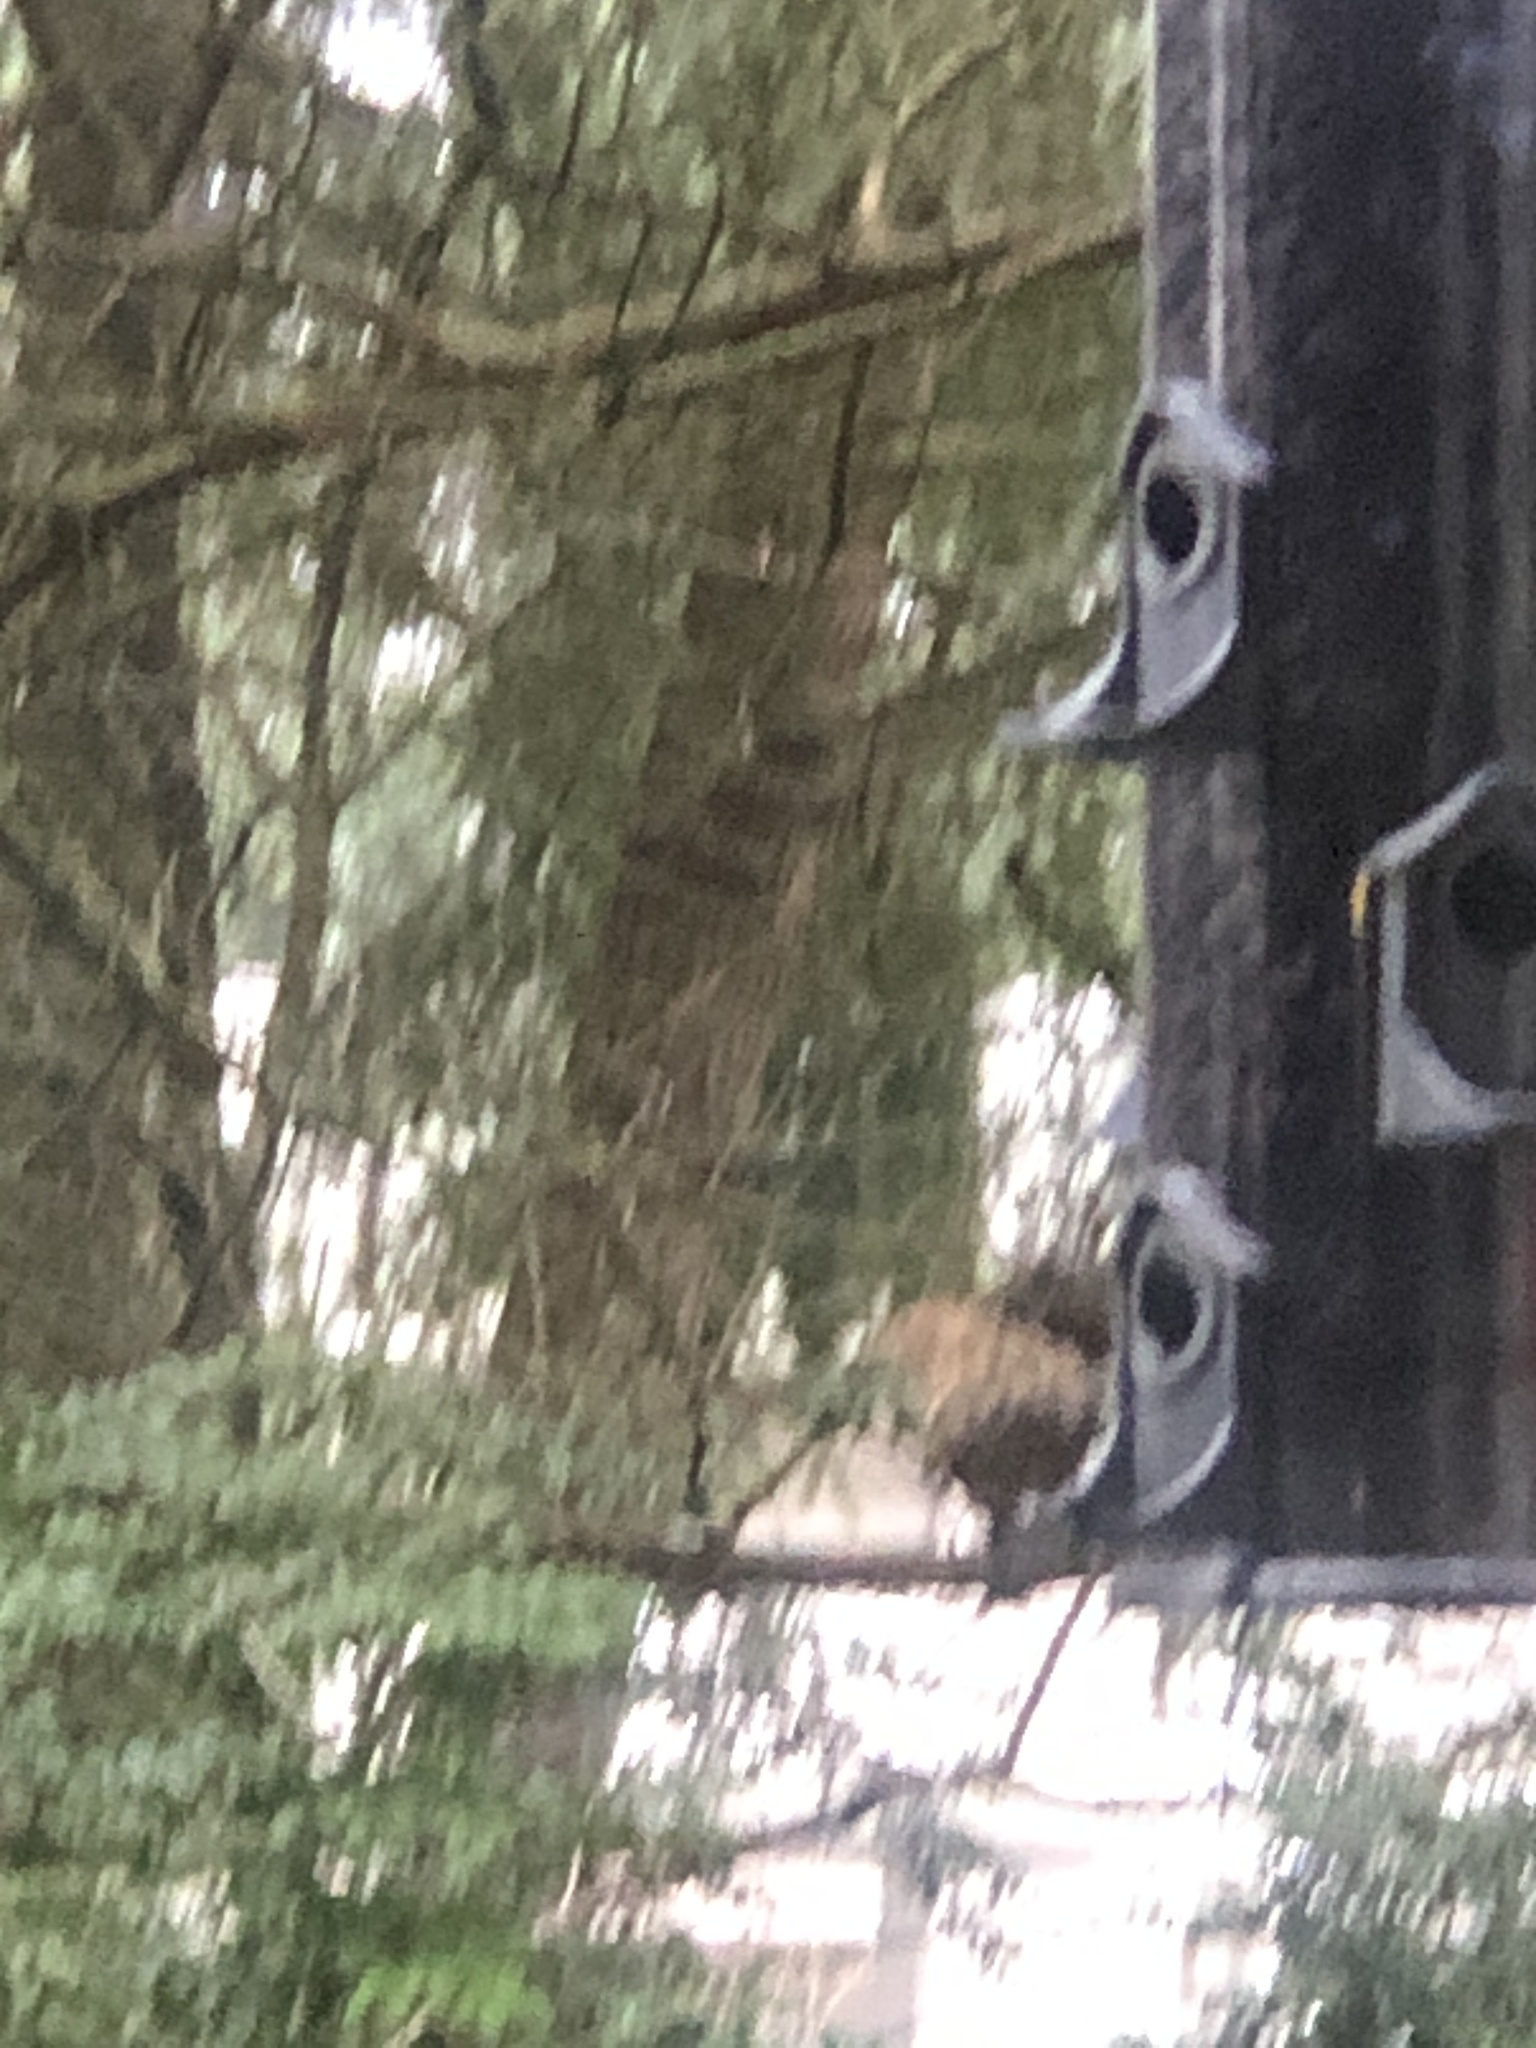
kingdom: Animalia
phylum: Chordata
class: Aves
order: Passeriformes
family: Fringillidae
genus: Spinus
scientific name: Spinus pinus
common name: Pine siskin
